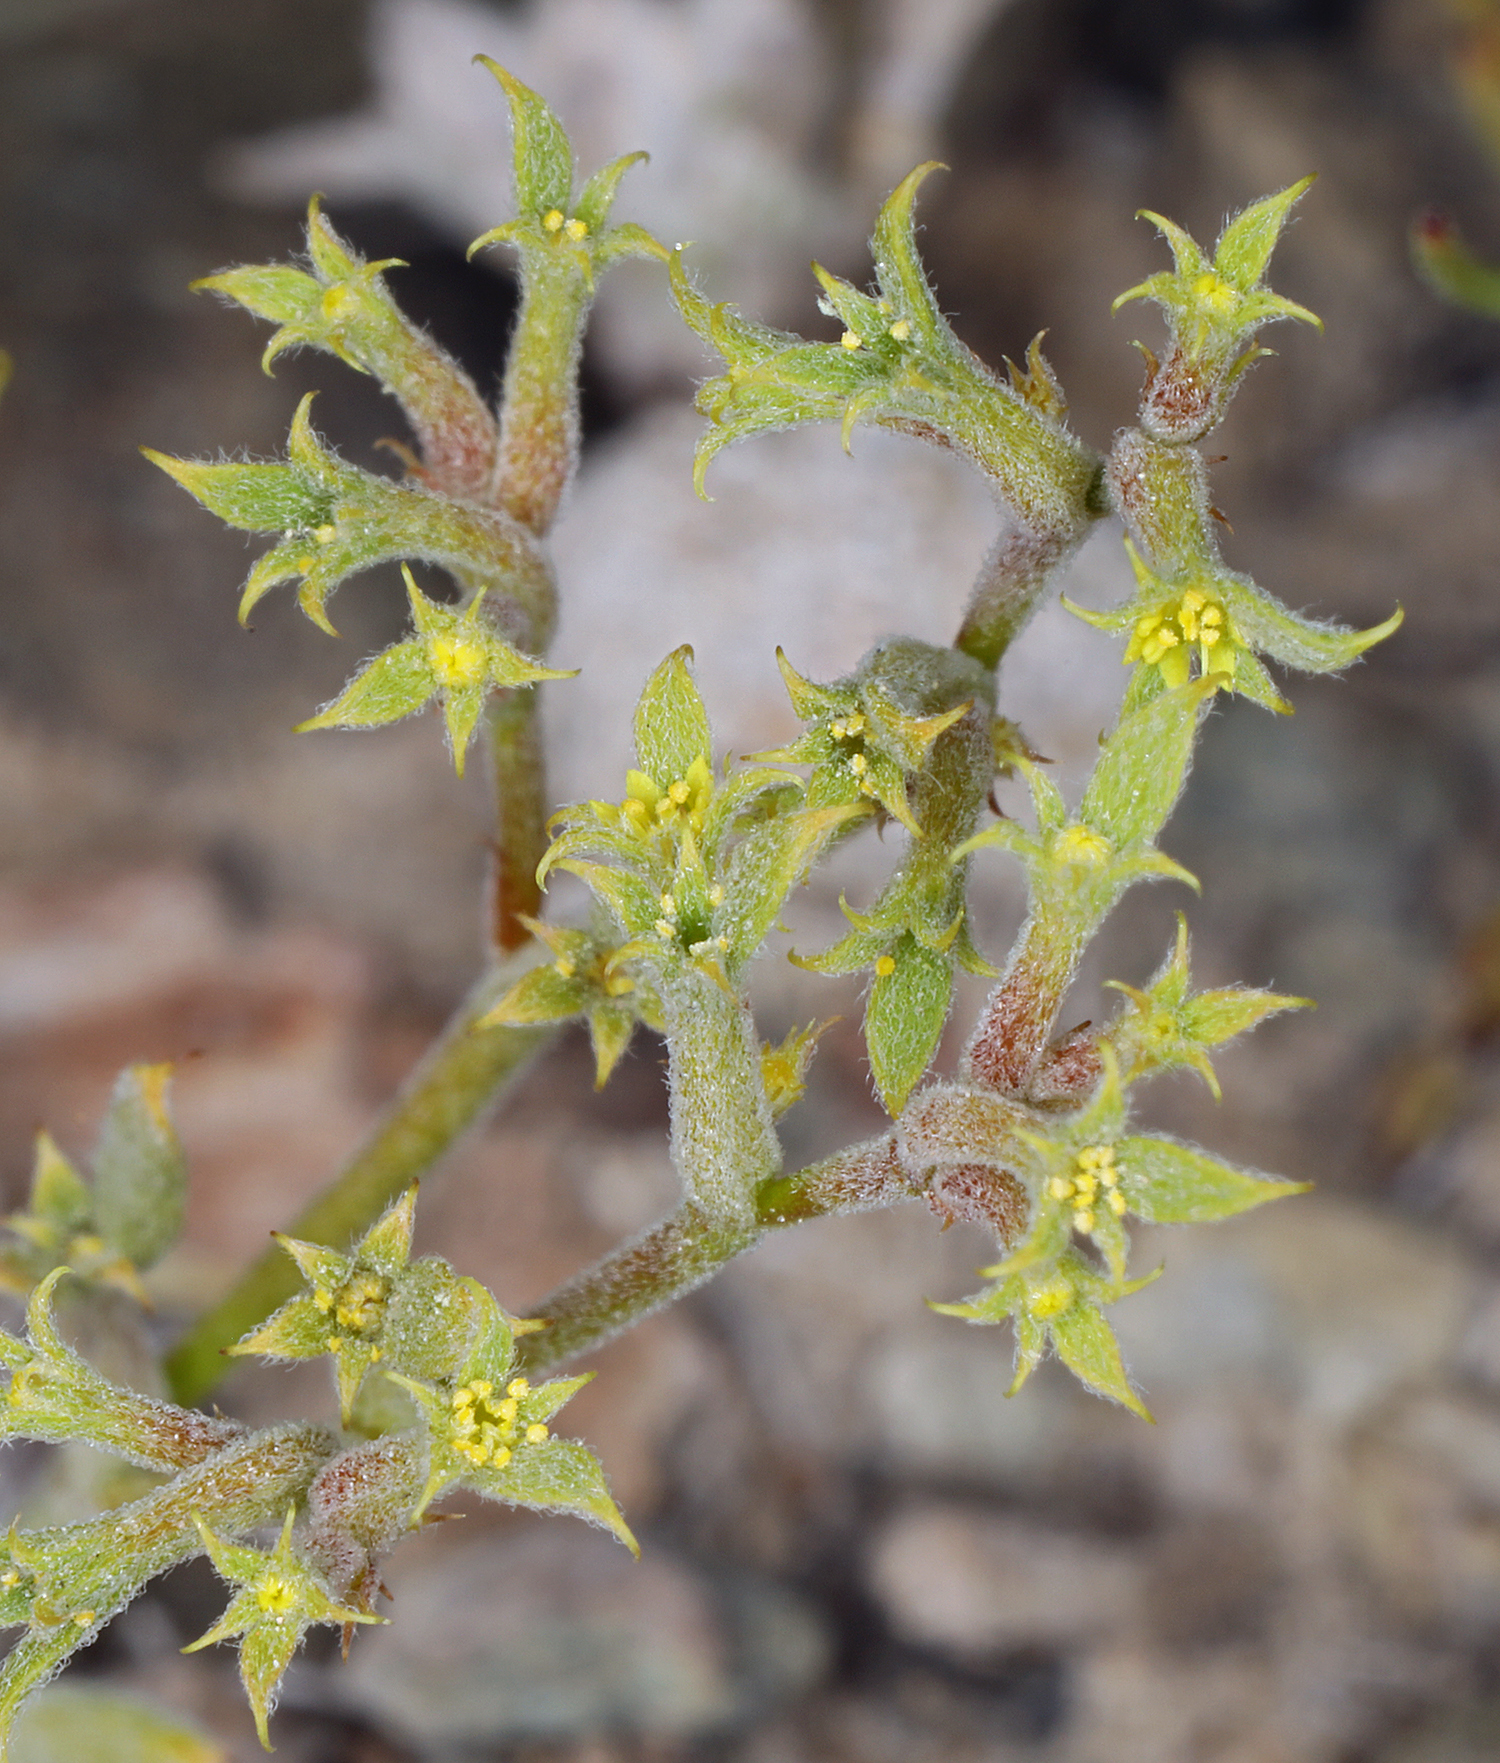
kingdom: Plantae
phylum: Tracheophyta
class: Magnoliopsida
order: Caryophyllales
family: Polygonaceae
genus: Chorizanthe
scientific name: Chorizanthe watsonii
